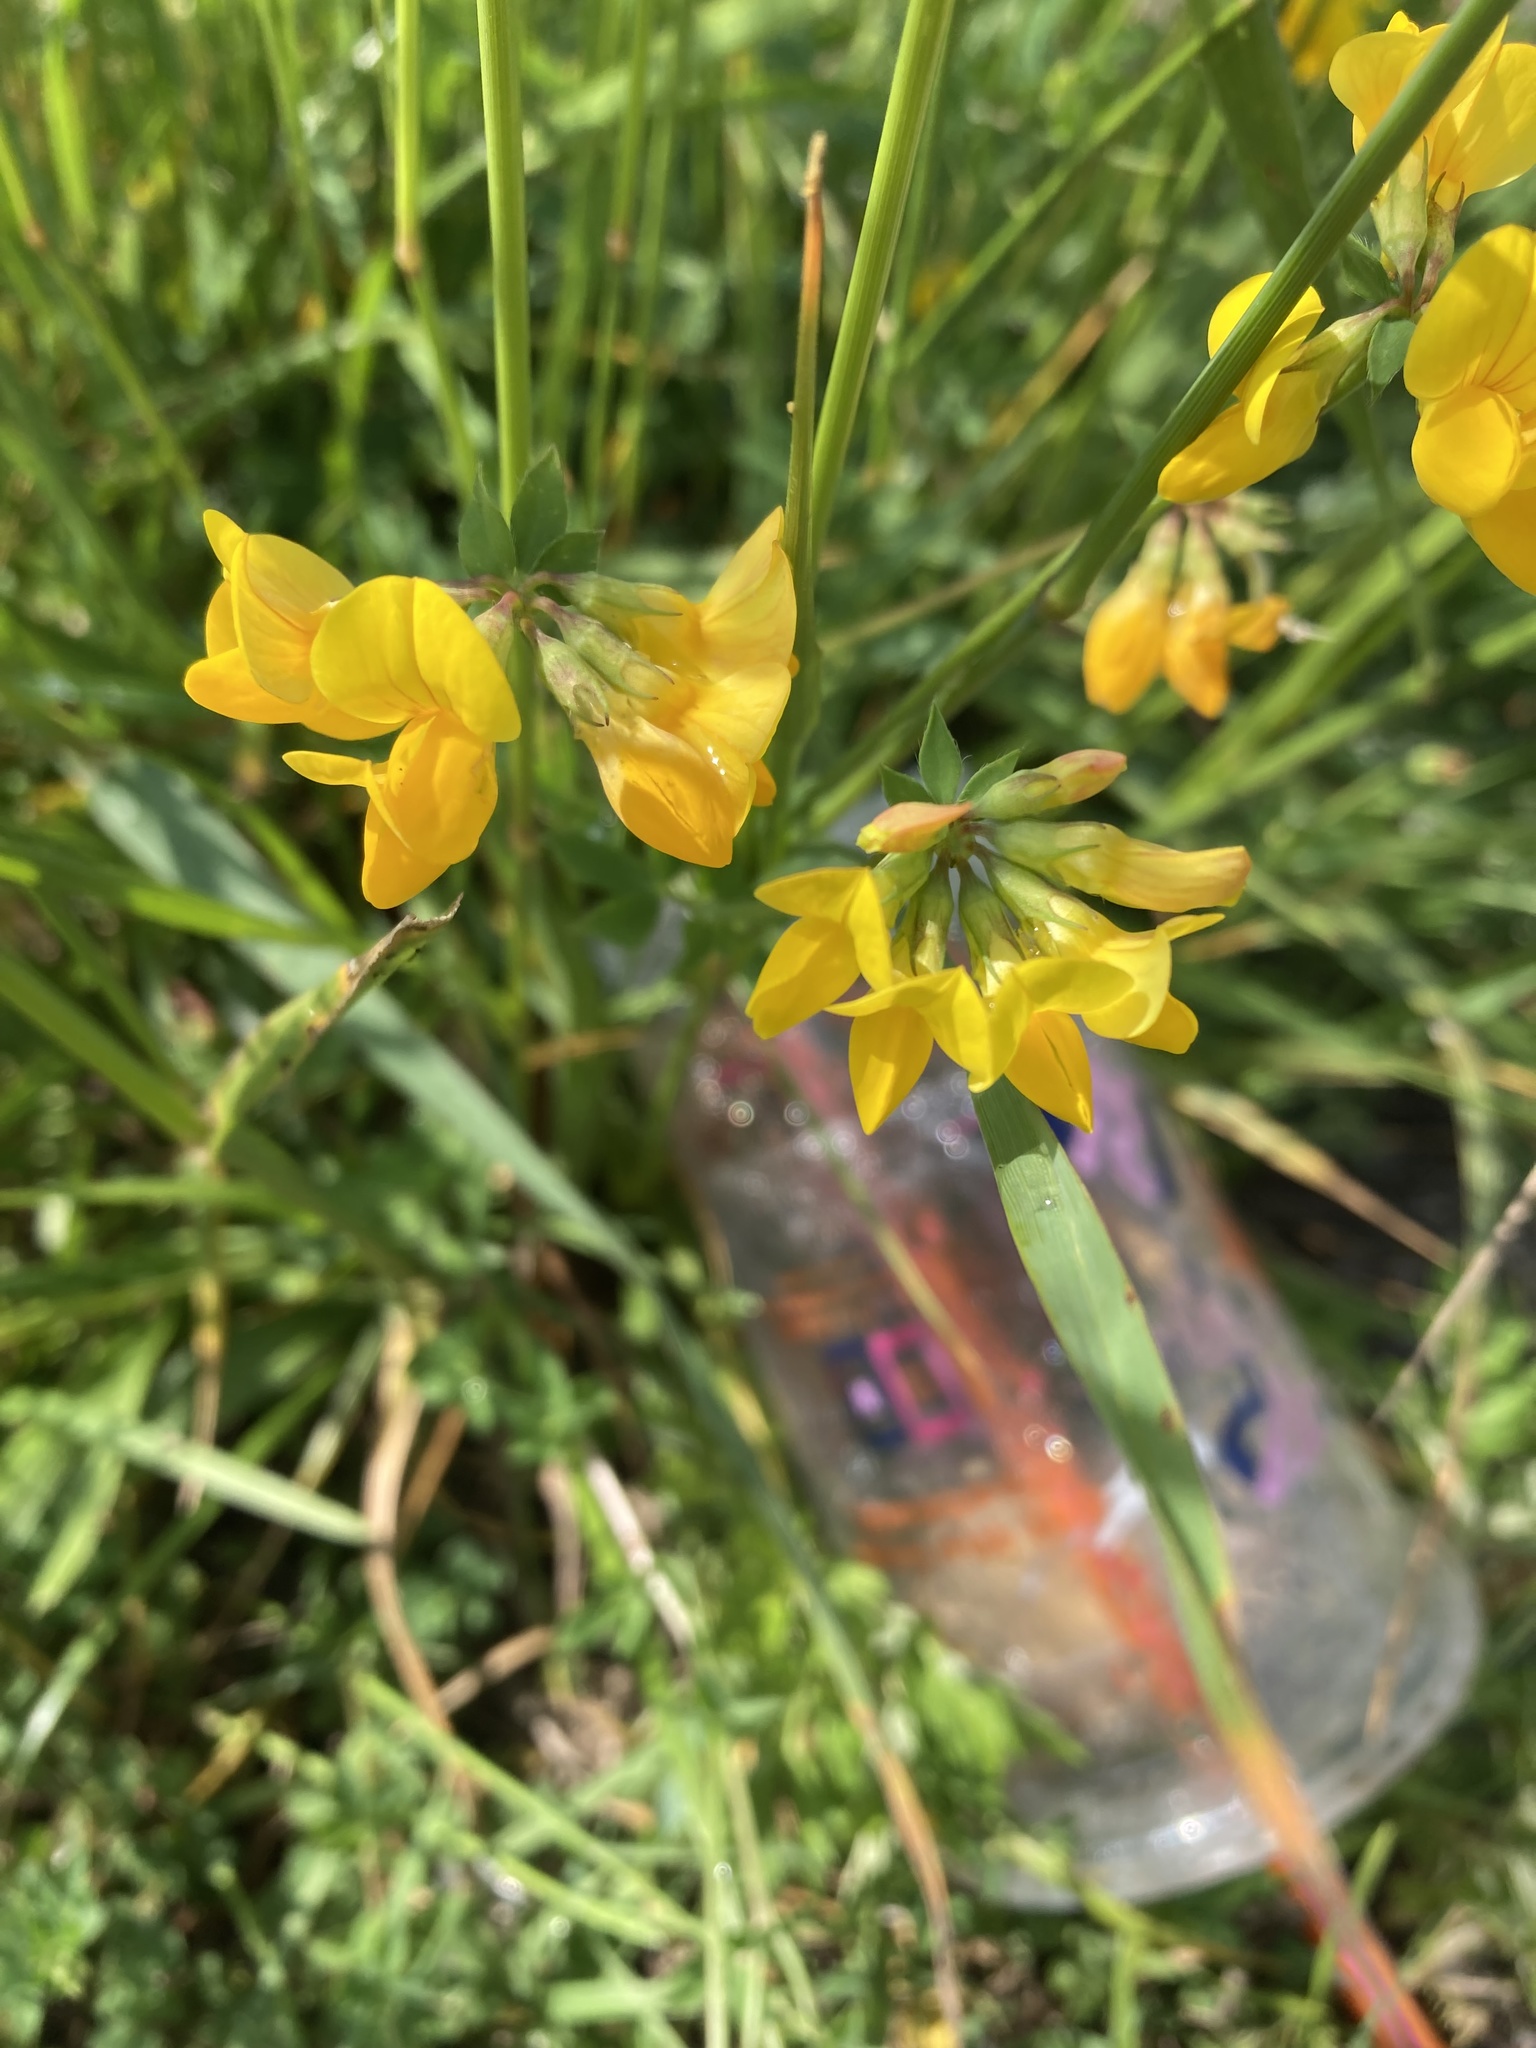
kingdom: Plantae
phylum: Tracheophyta
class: Magnoliopsida
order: Fabales
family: Fabaceae
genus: Lotus
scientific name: Lotus
